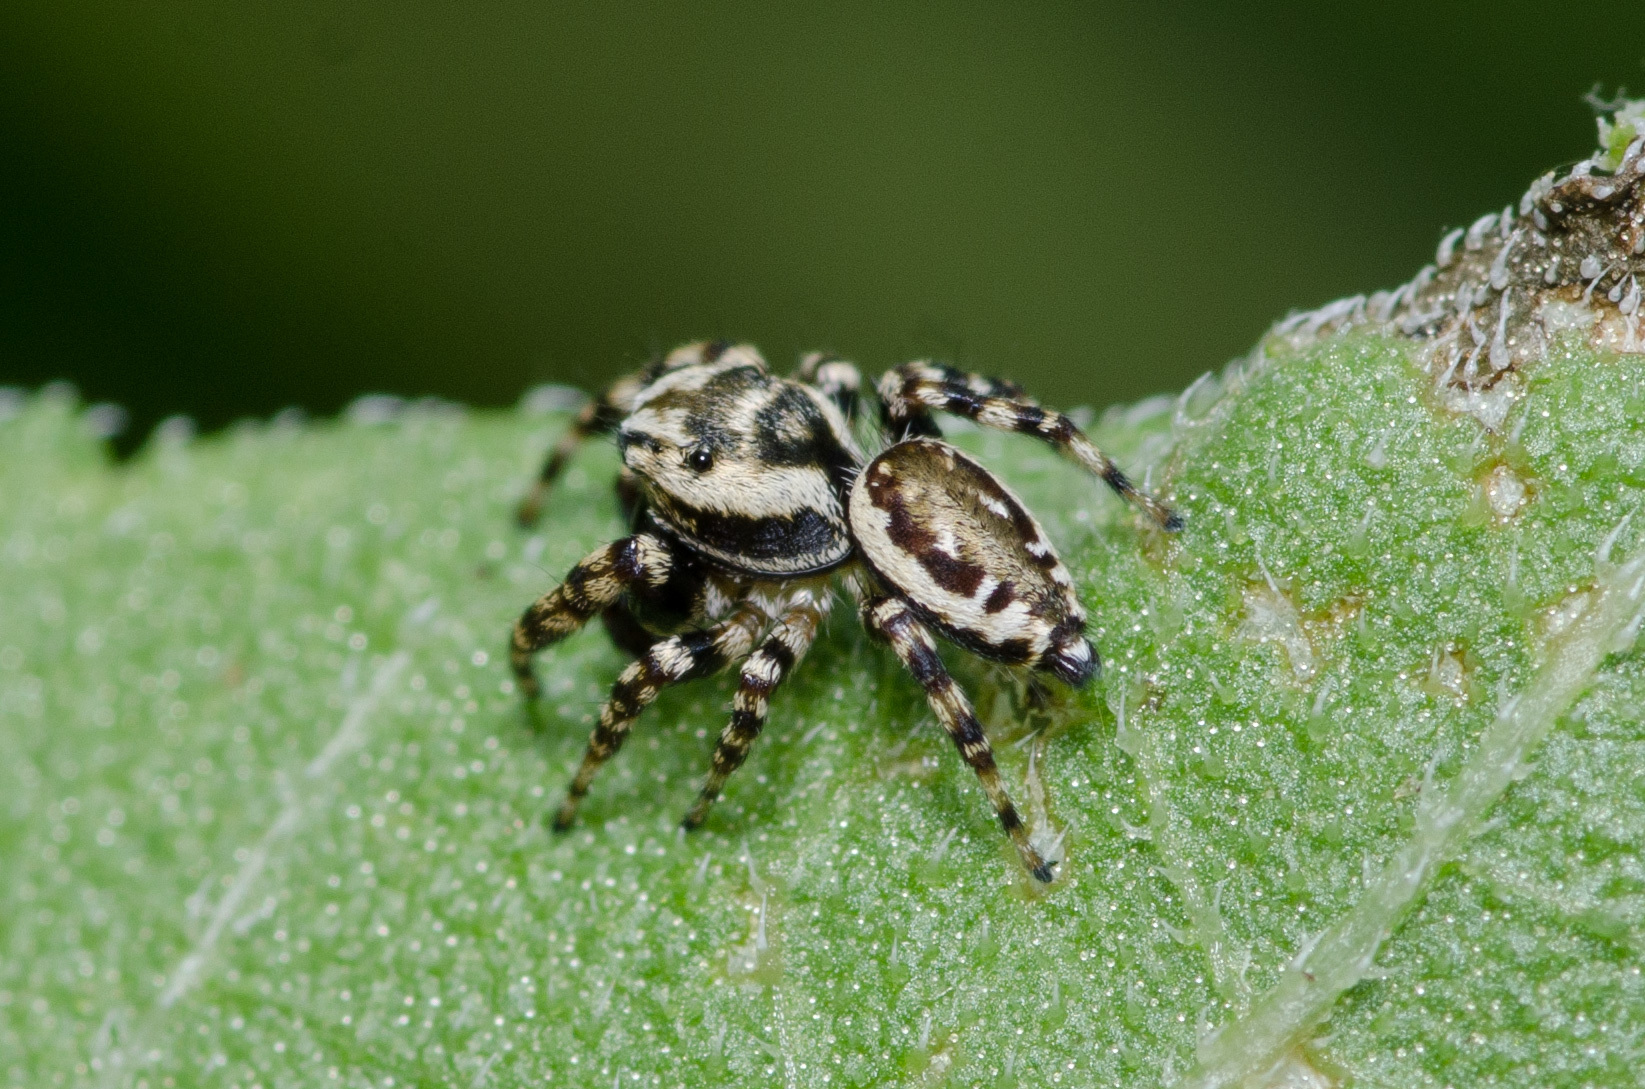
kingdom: Animalia
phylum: Arthropoda
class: Arachnida
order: Araneae
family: Salticidae
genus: Pelegrina
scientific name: Pelegrina galathea
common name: Jumping spiders
